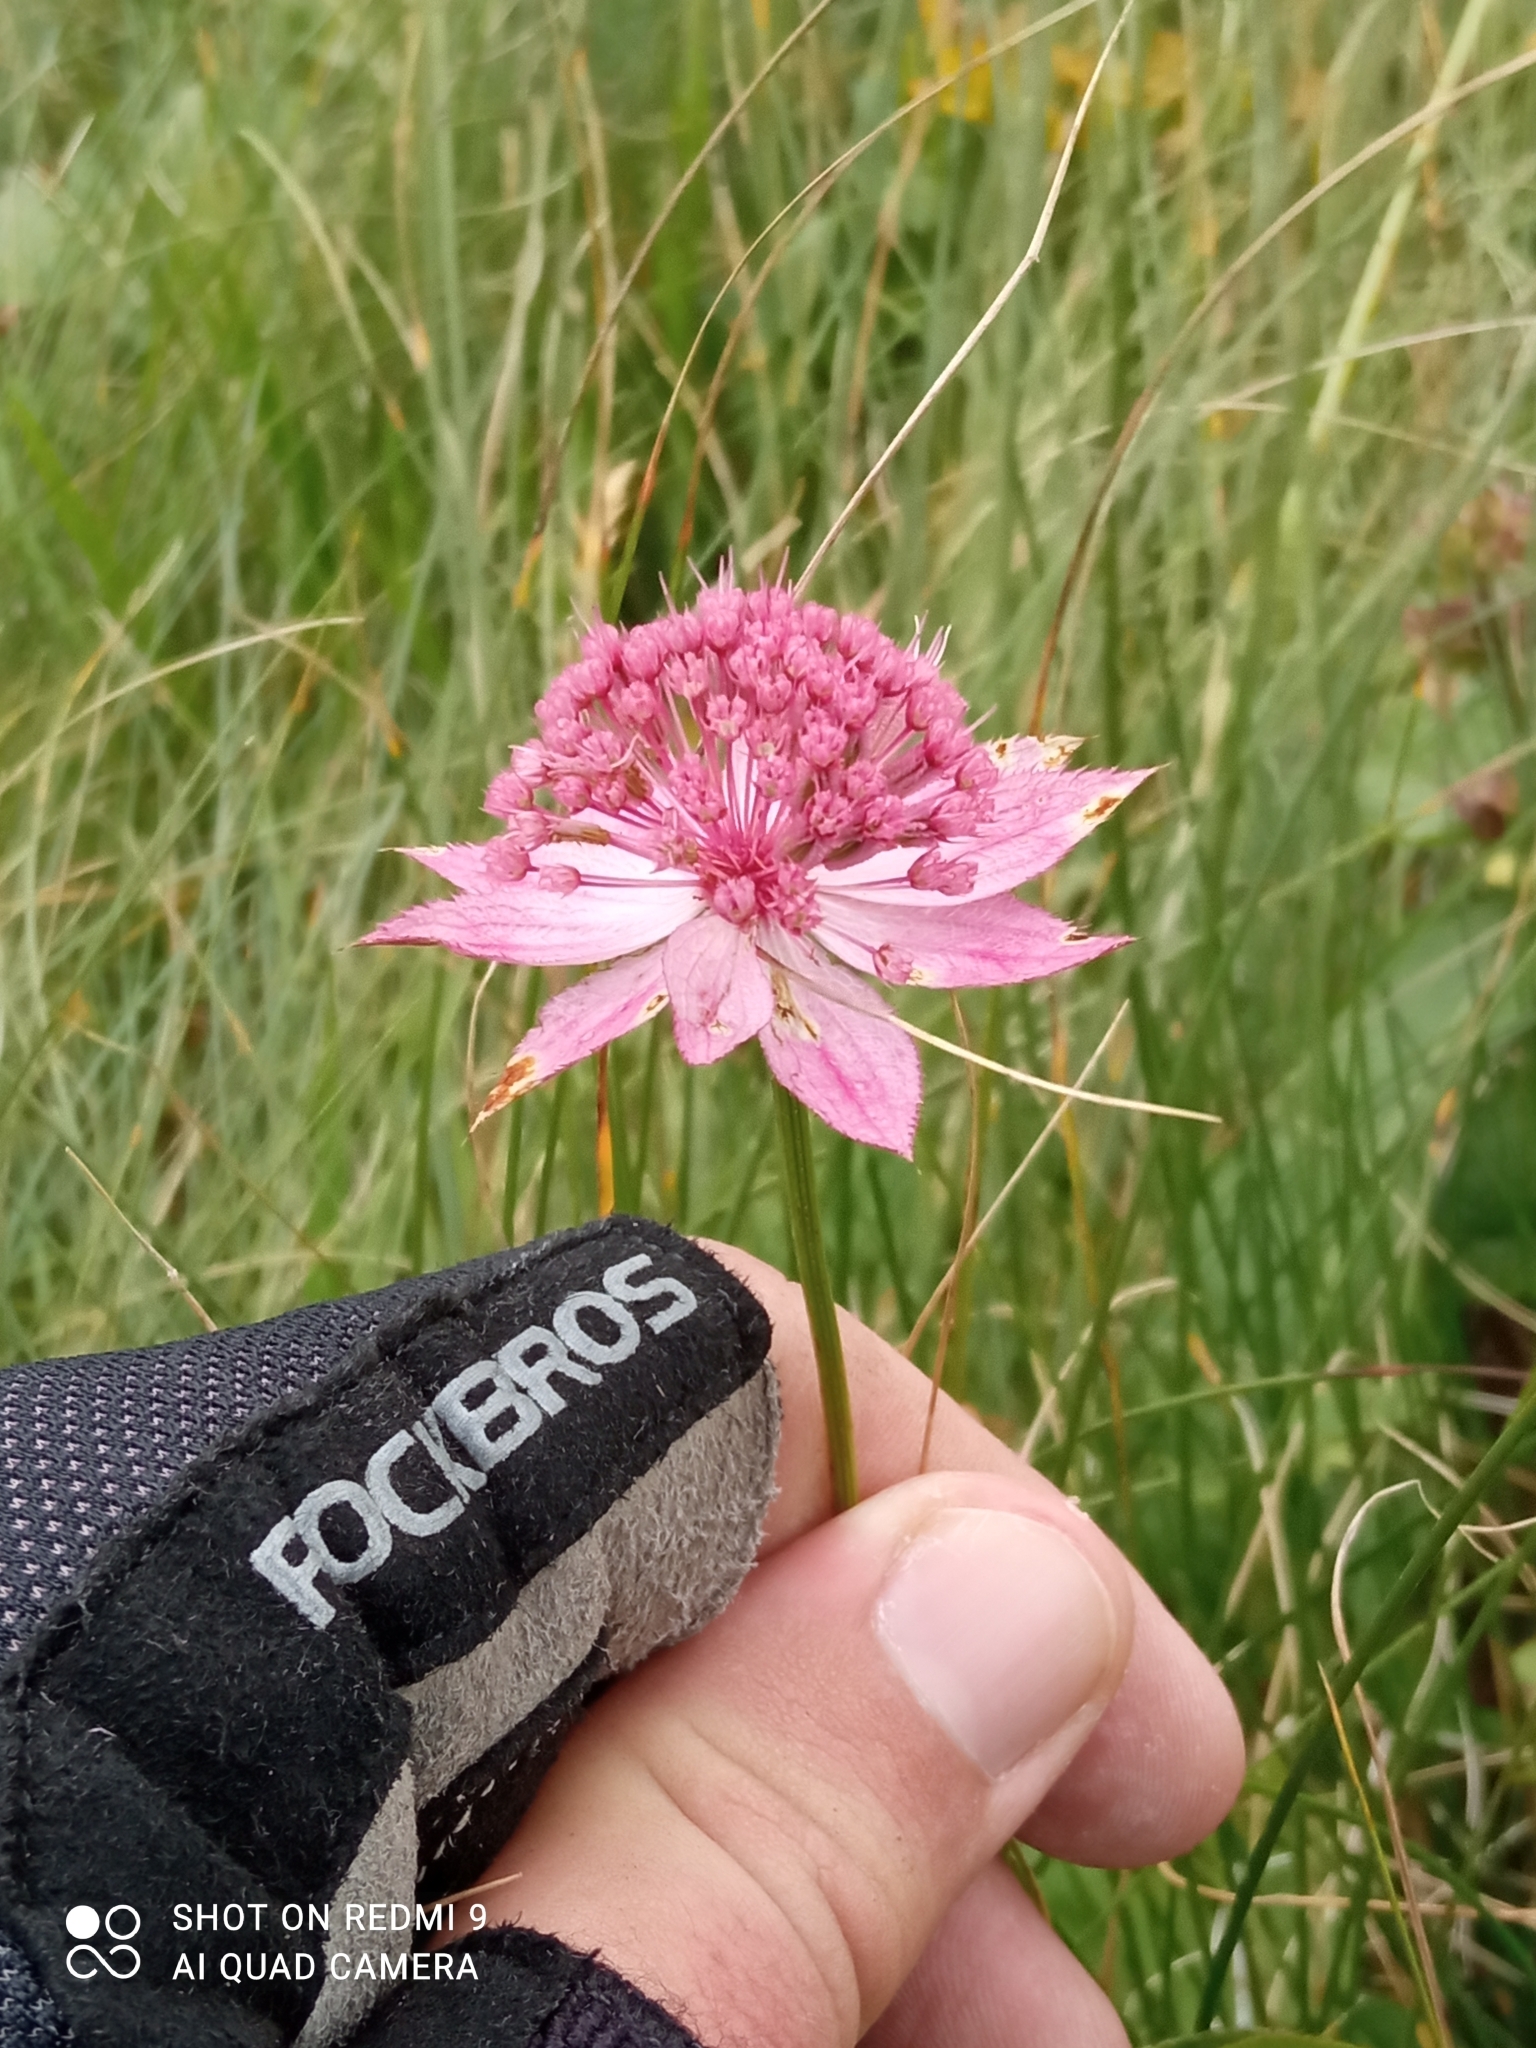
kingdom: Plantae
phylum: Tracheophyta
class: Magnoliopsida
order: Apiales
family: Apiaceae
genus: Astrantia
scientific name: Astrantia maxima
